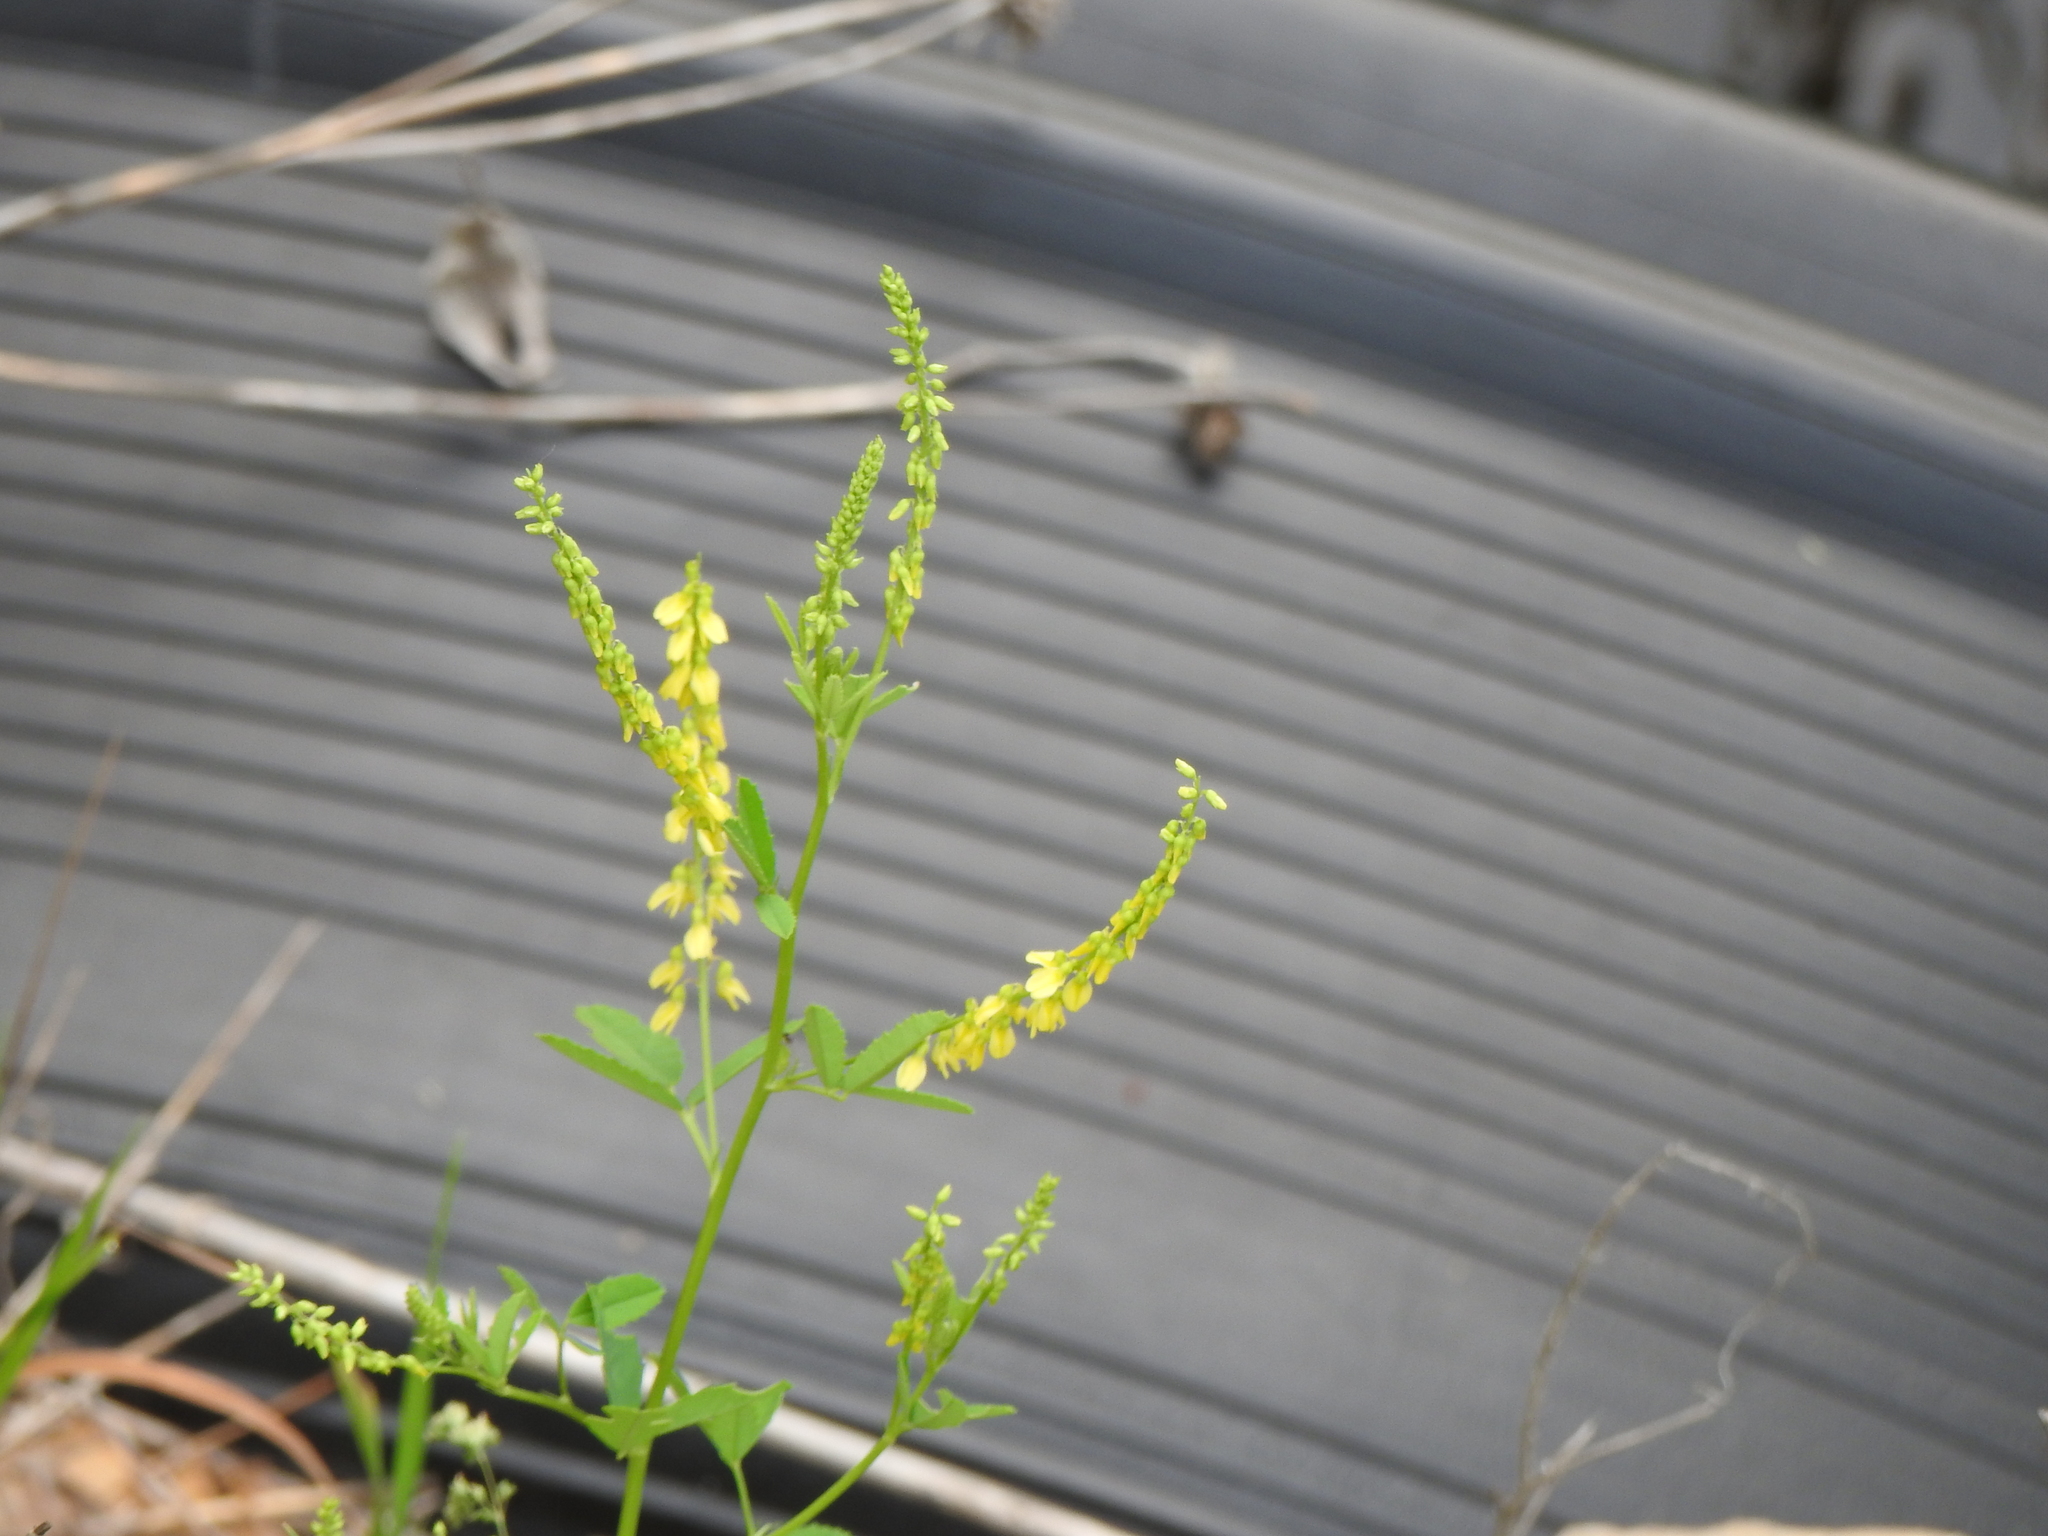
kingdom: Plantae
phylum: Tracheophyta
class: Magnoliopsida
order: Fabales
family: Fabaceae
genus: Melilotus
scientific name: Melilotus officinalis
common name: Sweetclover
